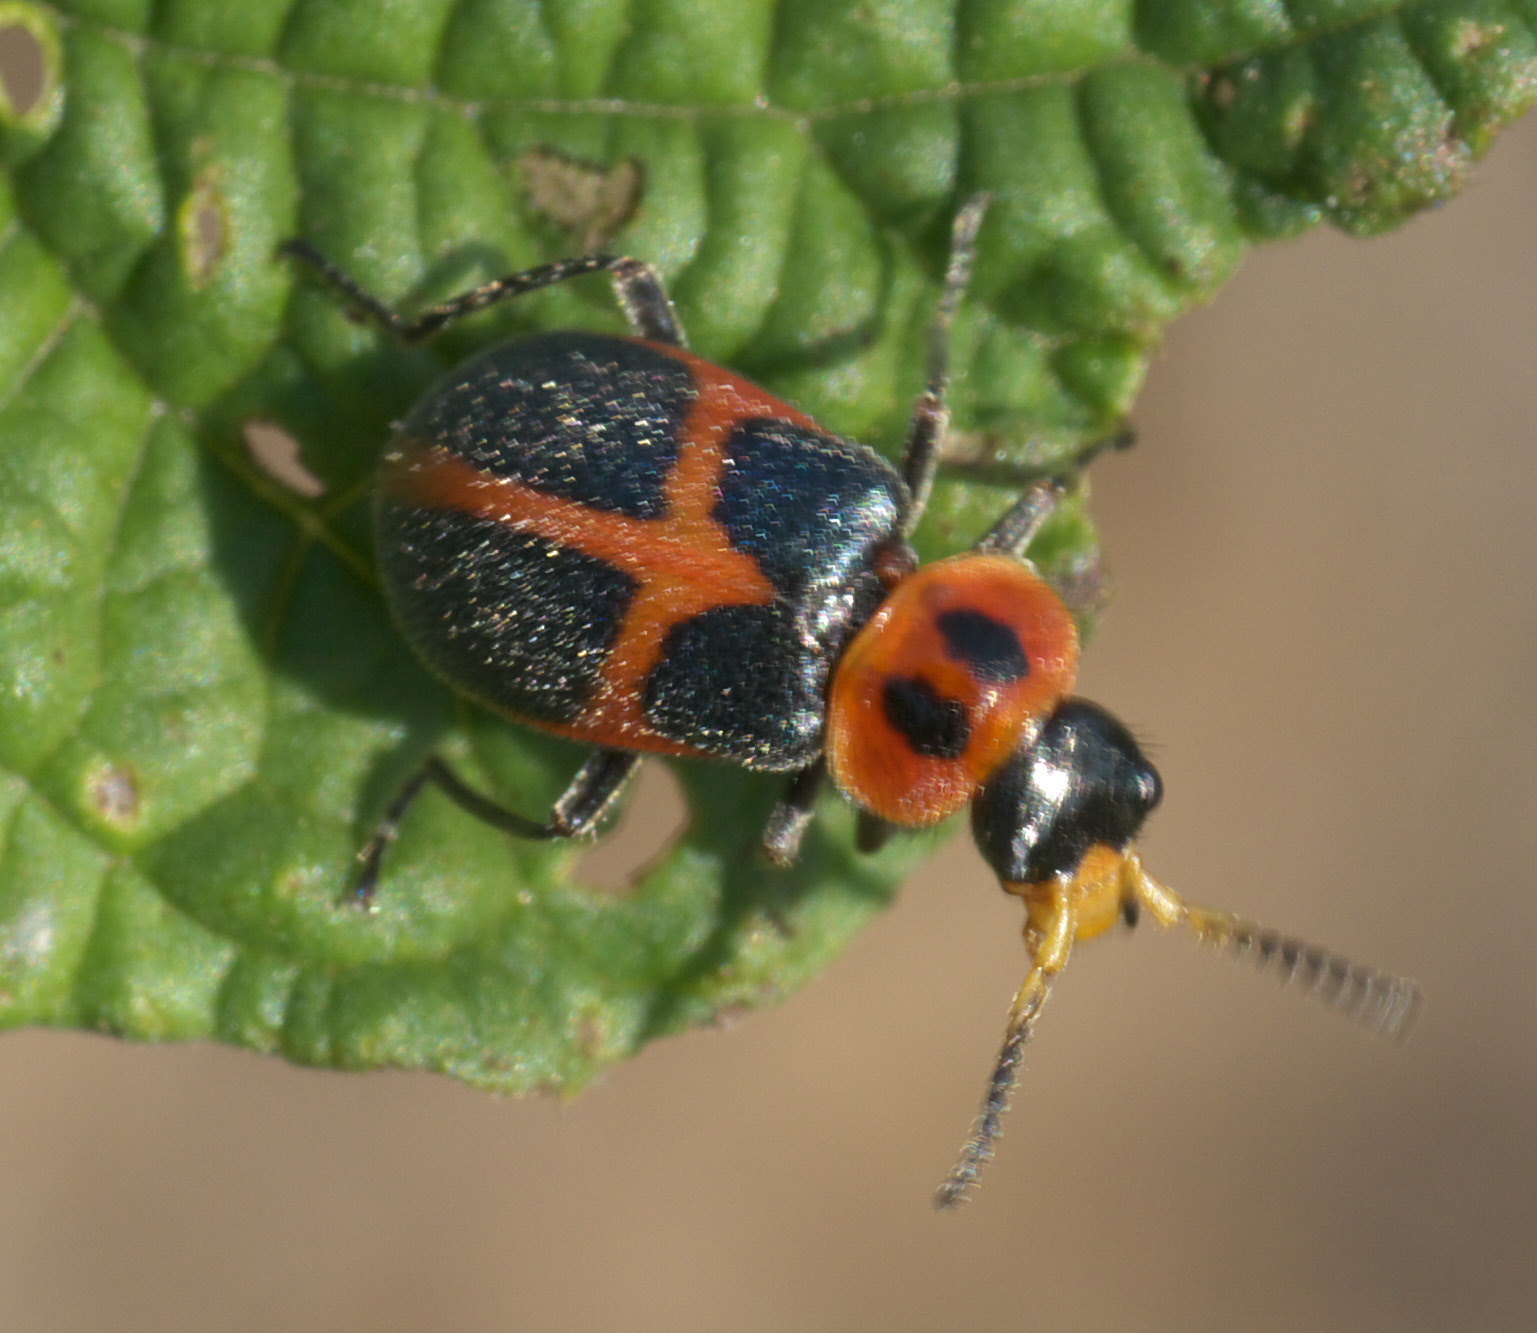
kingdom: Animalia
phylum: Arthropoda
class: Insecta
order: Coleoptera
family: Melyridae
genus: Collops
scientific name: Collops
